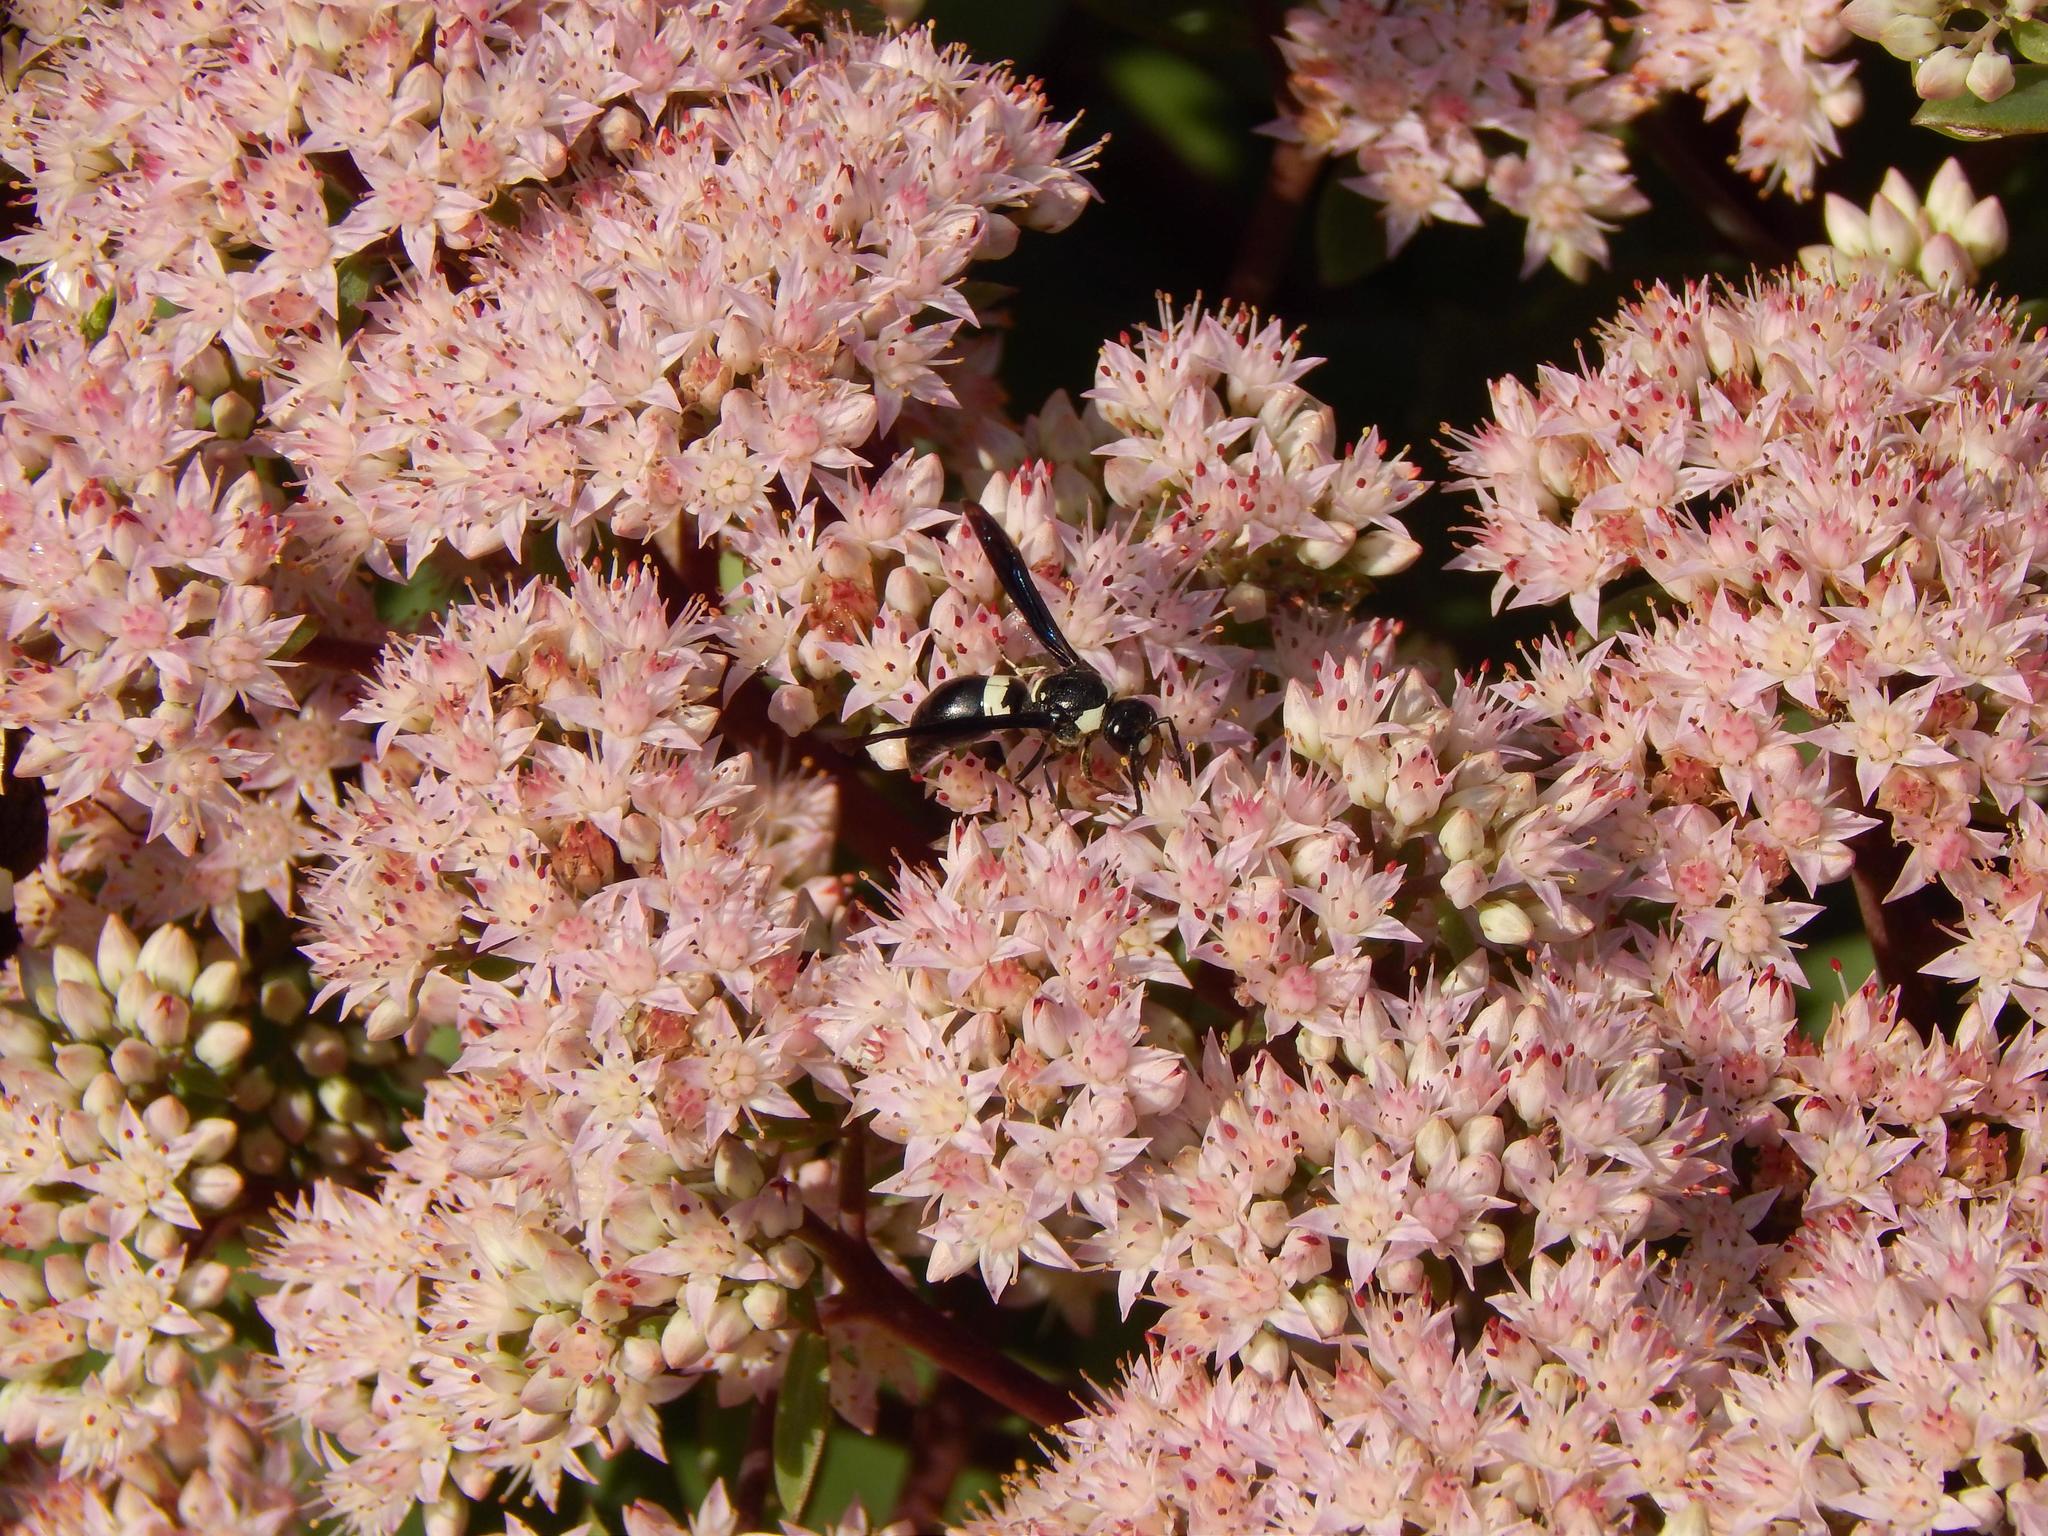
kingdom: Animalia
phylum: Arthropoda
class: Insecta
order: Hymenoptera
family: Eumenidae
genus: Monobia
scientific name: Monobia quadridens
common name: Four-toothed mason wasp
